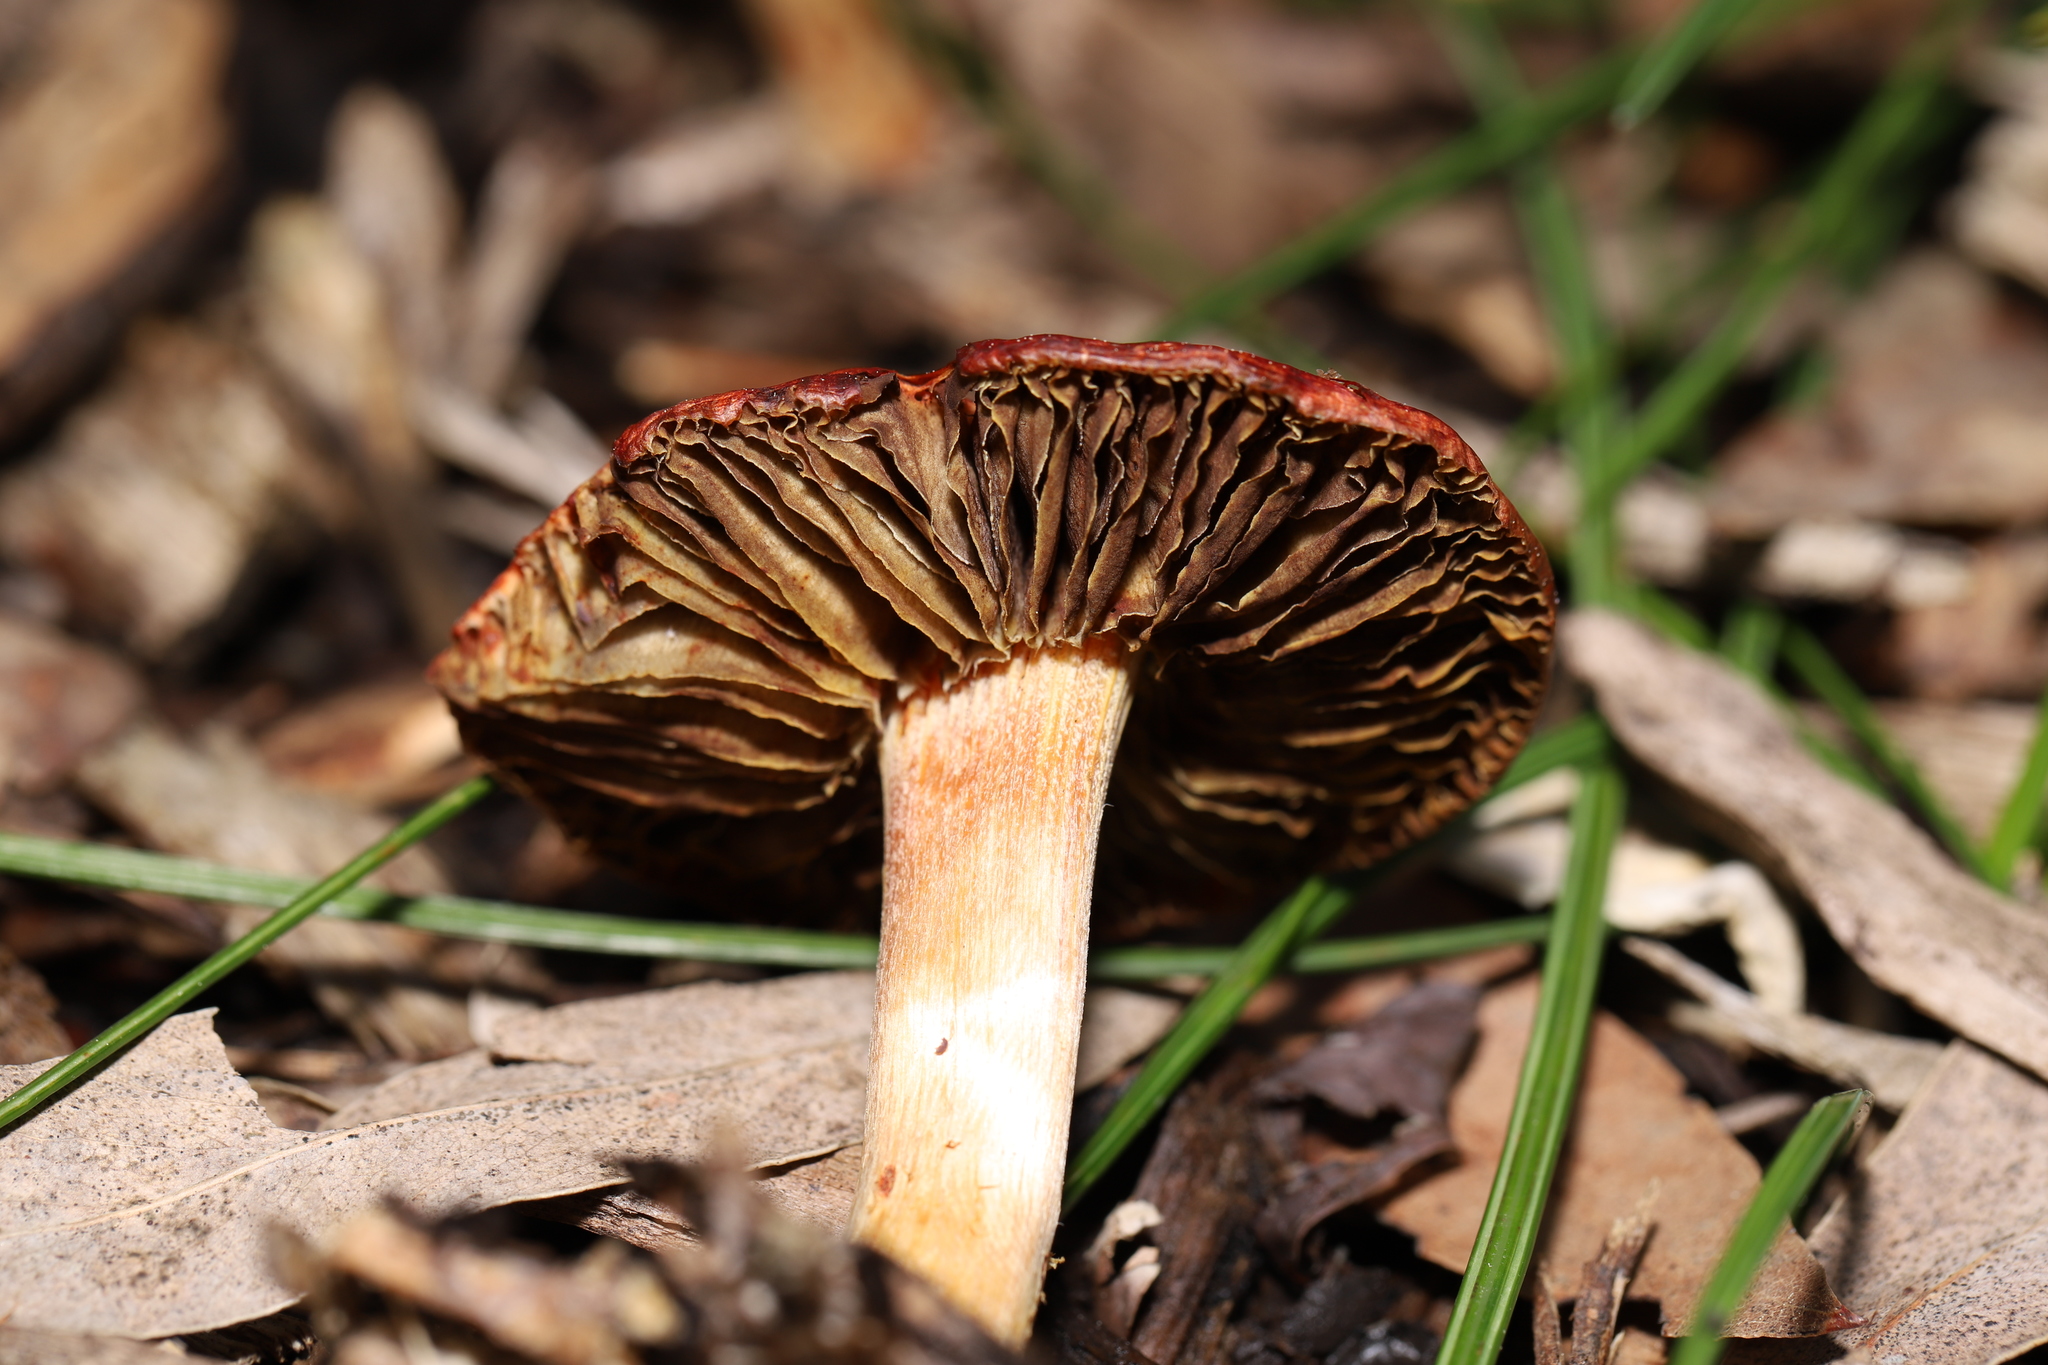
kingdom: Fungi
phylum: Basidiomycota
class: Agaricomycetes
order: Agaricales
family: Strophariaceae
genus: Leratiomyces
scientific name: Leratiomyces ceres
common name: Redlead roundhead
